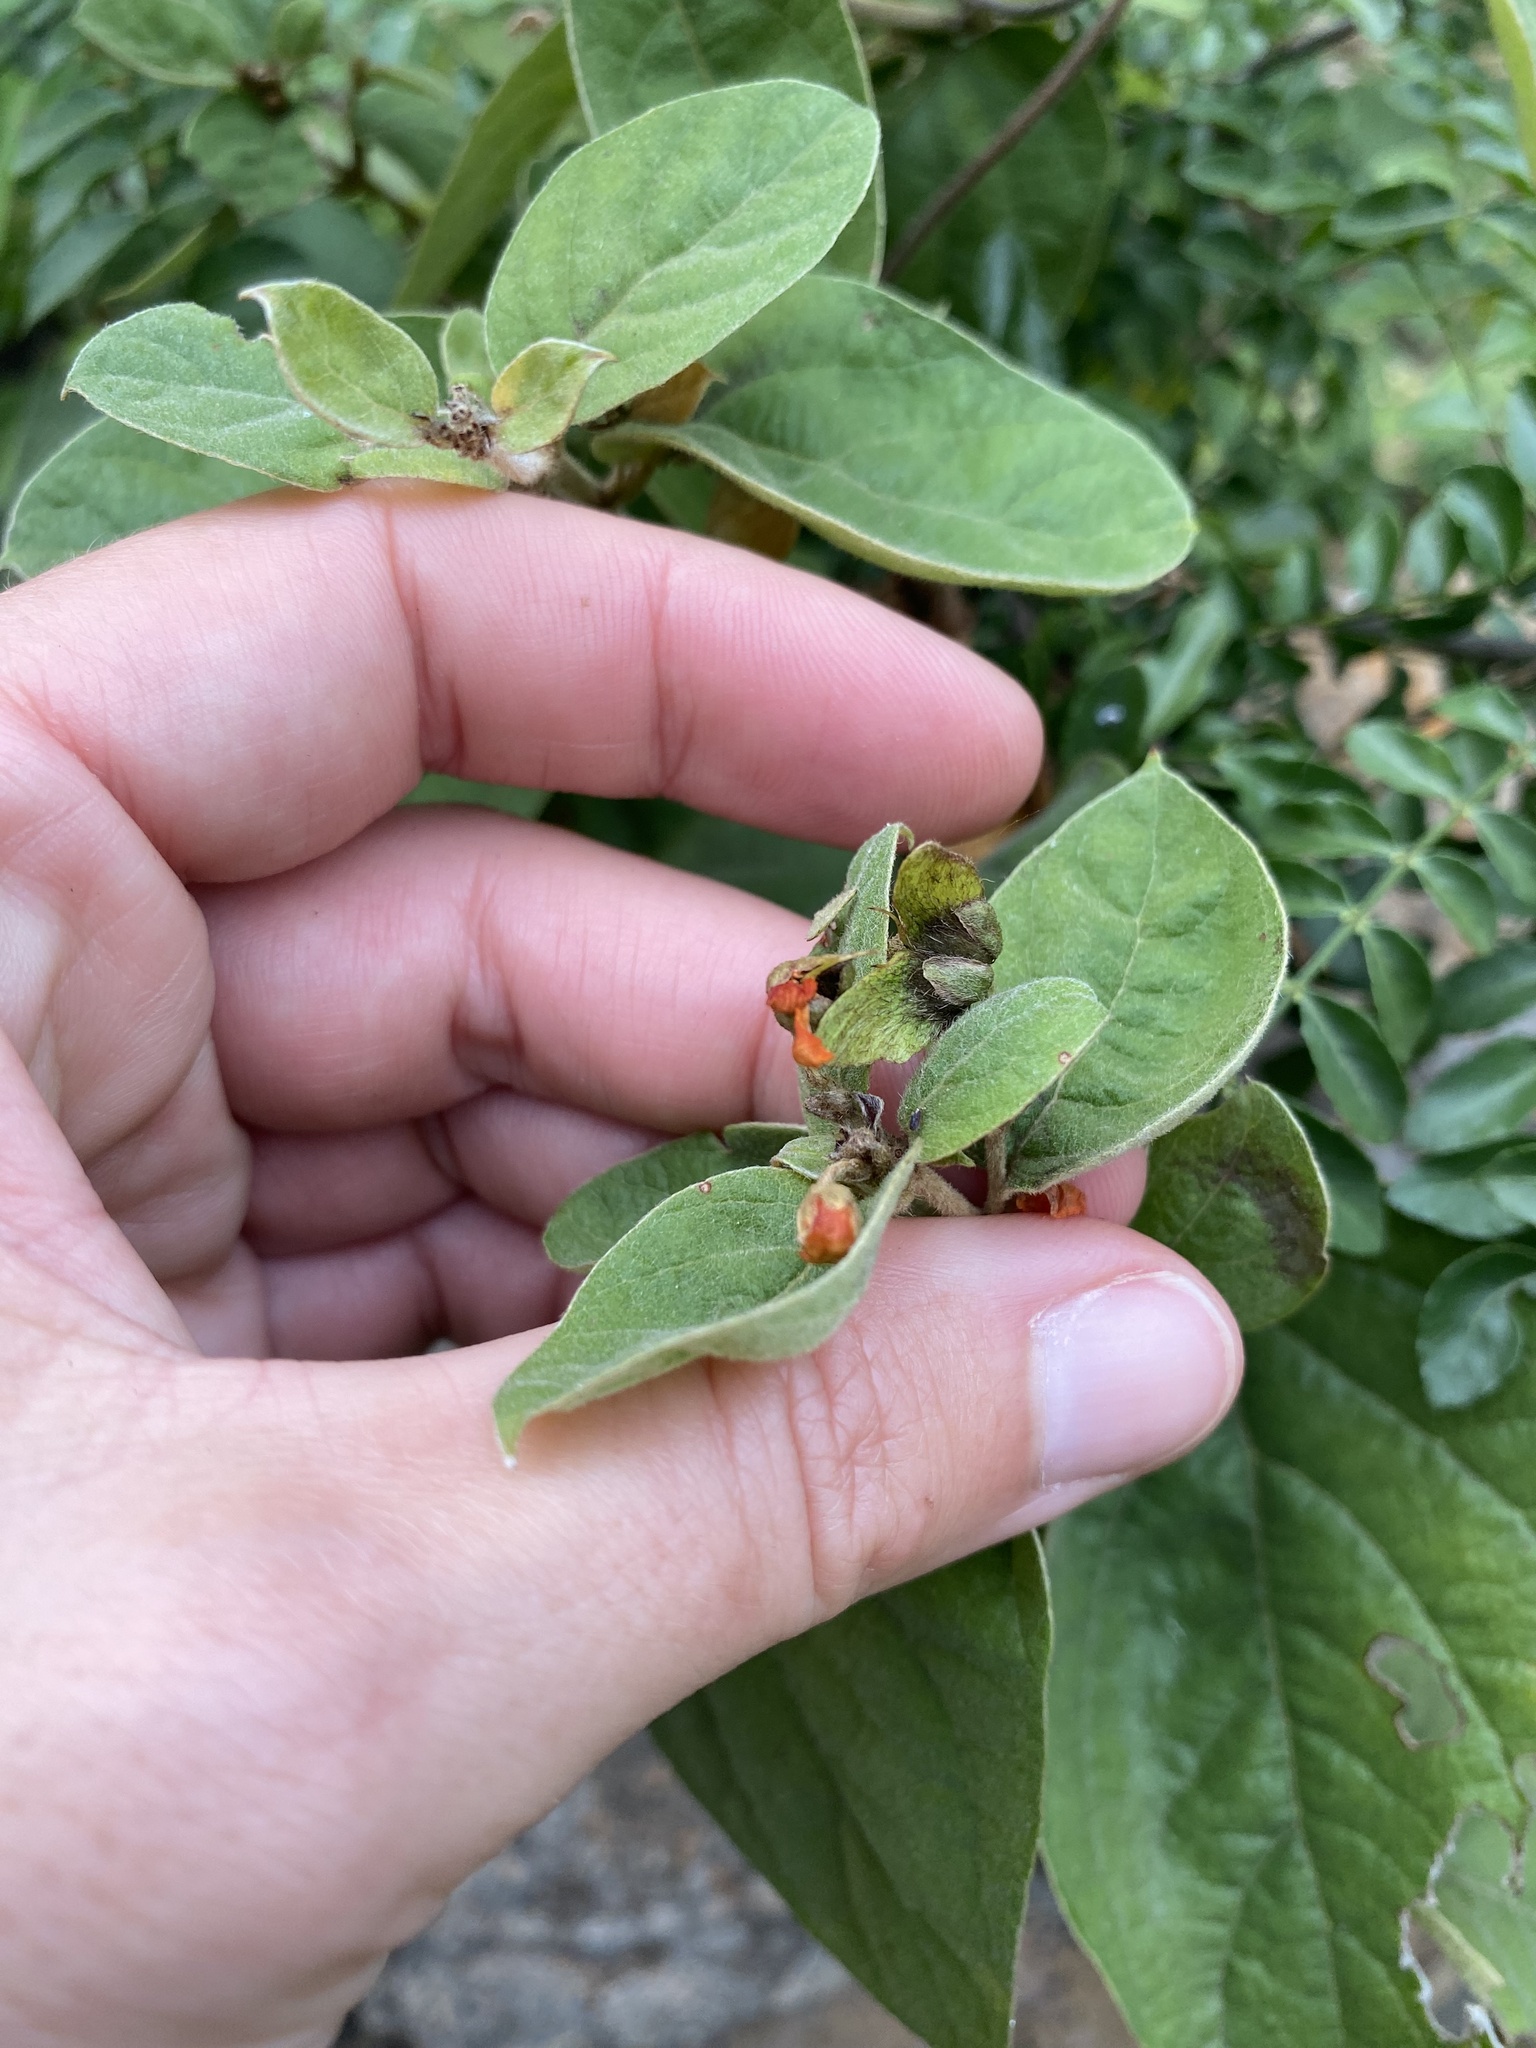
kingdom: Plantae
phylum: Tracheophyta
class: Magnoliopsida
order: Malpighiales
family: Malpighiaceae
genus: Sphedamnocarpus
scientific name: Sphedamnocarpus pruriens
